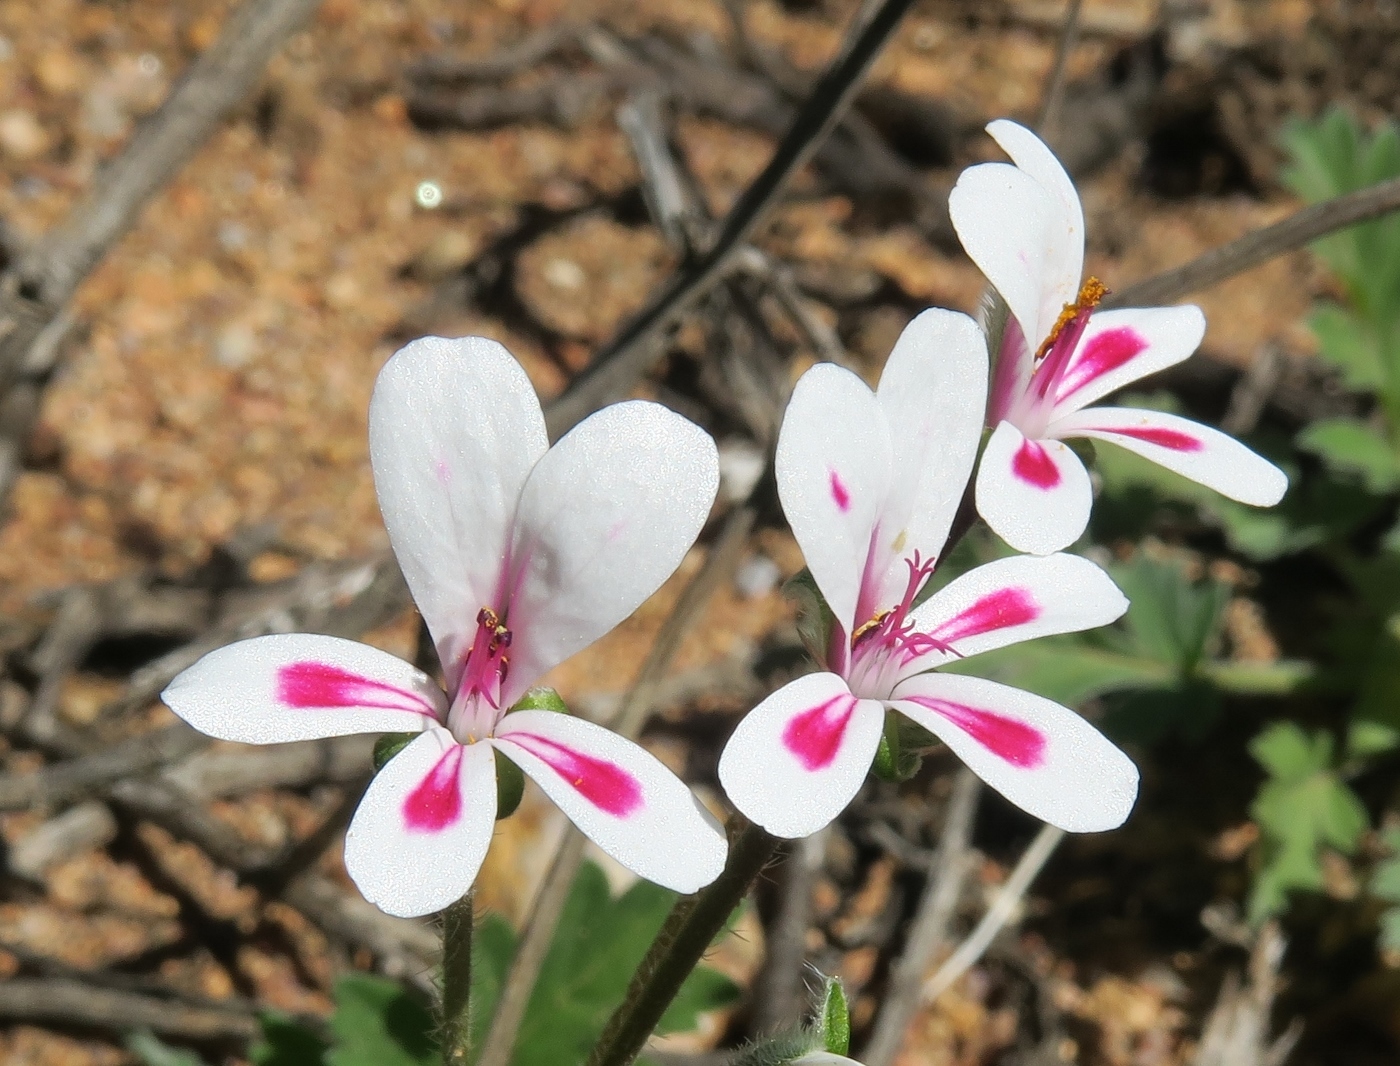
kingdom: Plantae
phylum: Tracheophyta
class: Magnoliopsida
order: Geraniales
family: Geraniaceae
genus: Pelargonium
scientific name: Pelargonium pulchellum
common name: Nonesuch pelargonium
